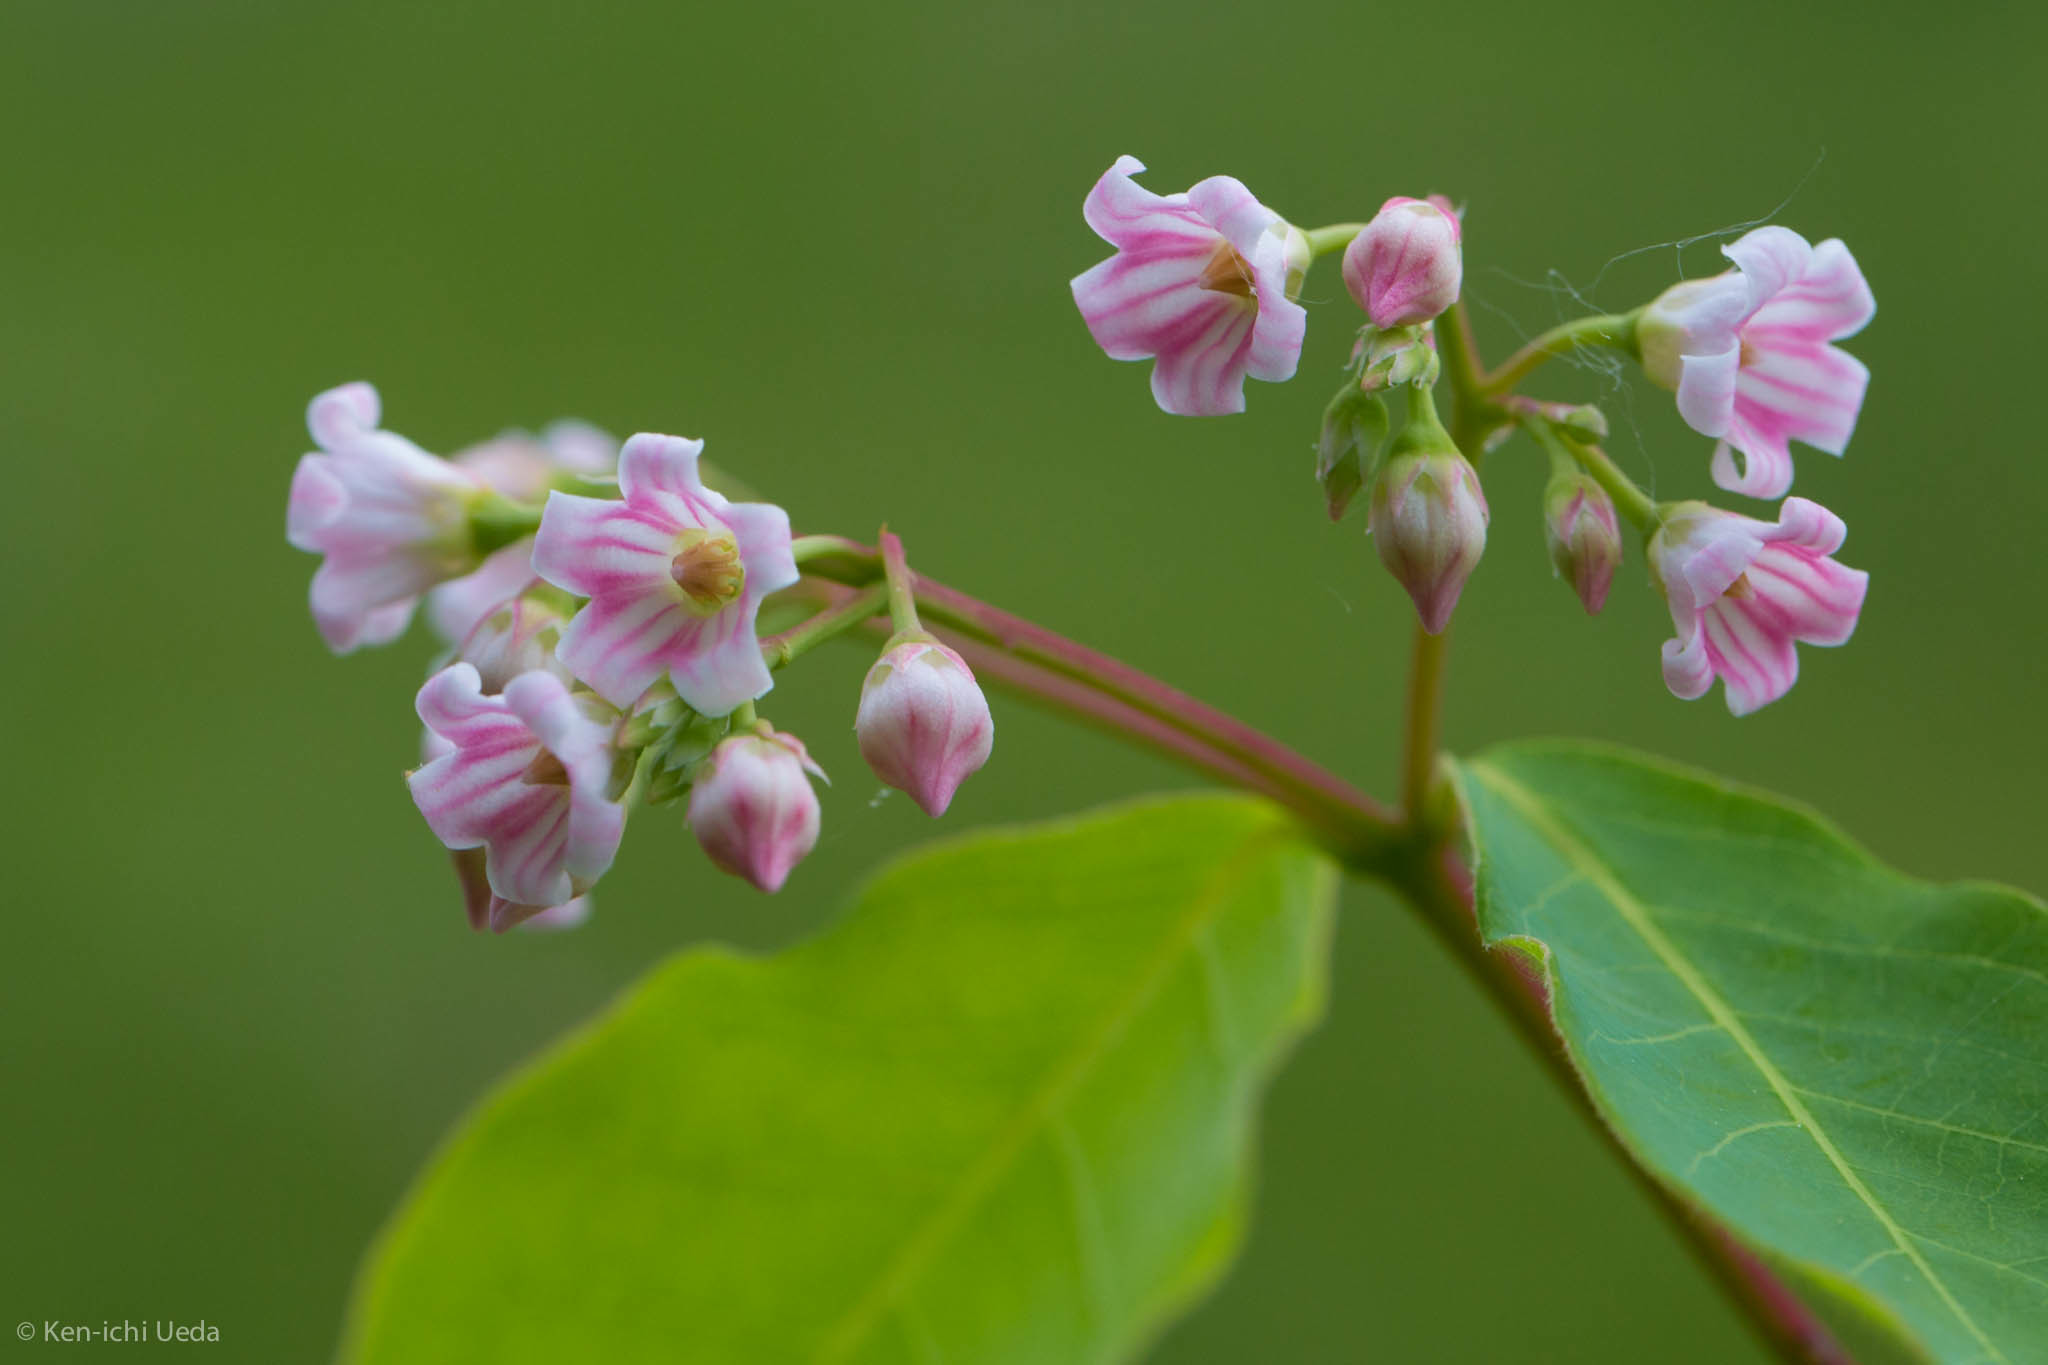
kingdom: Plantae
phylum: Tracheophyta
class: Magnoliopsida
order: Gentianales
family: Apocynaceae
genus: Apocynum
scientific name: Apocynum androsaemifolium
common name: Spreading dogbane
